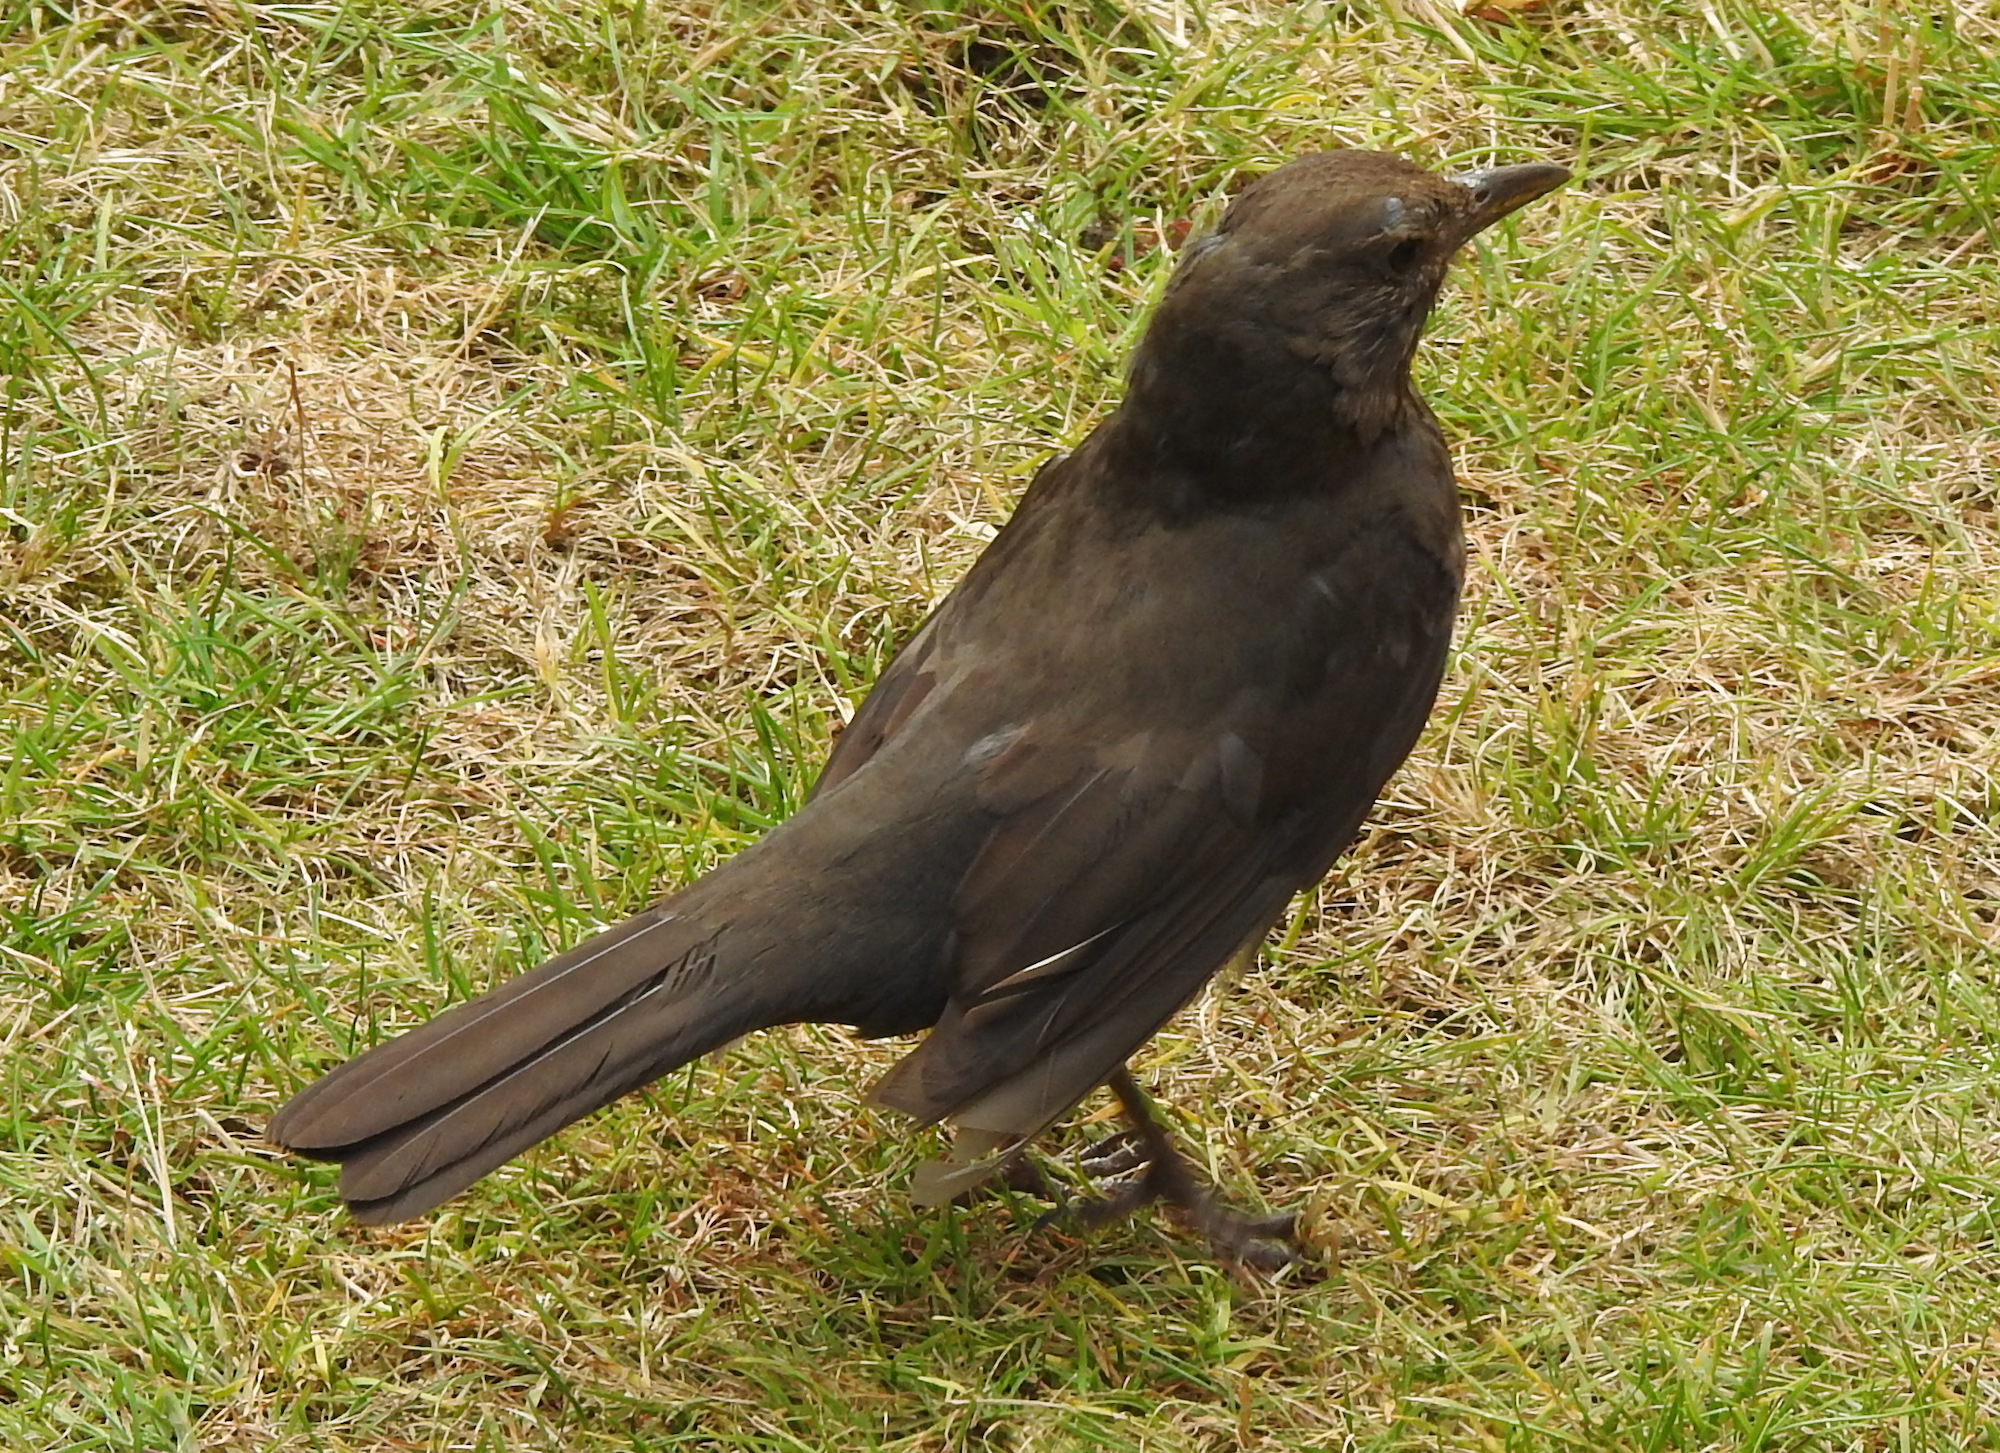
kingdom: Animalia
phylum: Chordata
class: Aves
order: Passeriformes
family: Turdidae
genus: Turdus
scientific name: Turdus merula
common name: Common blackbird
